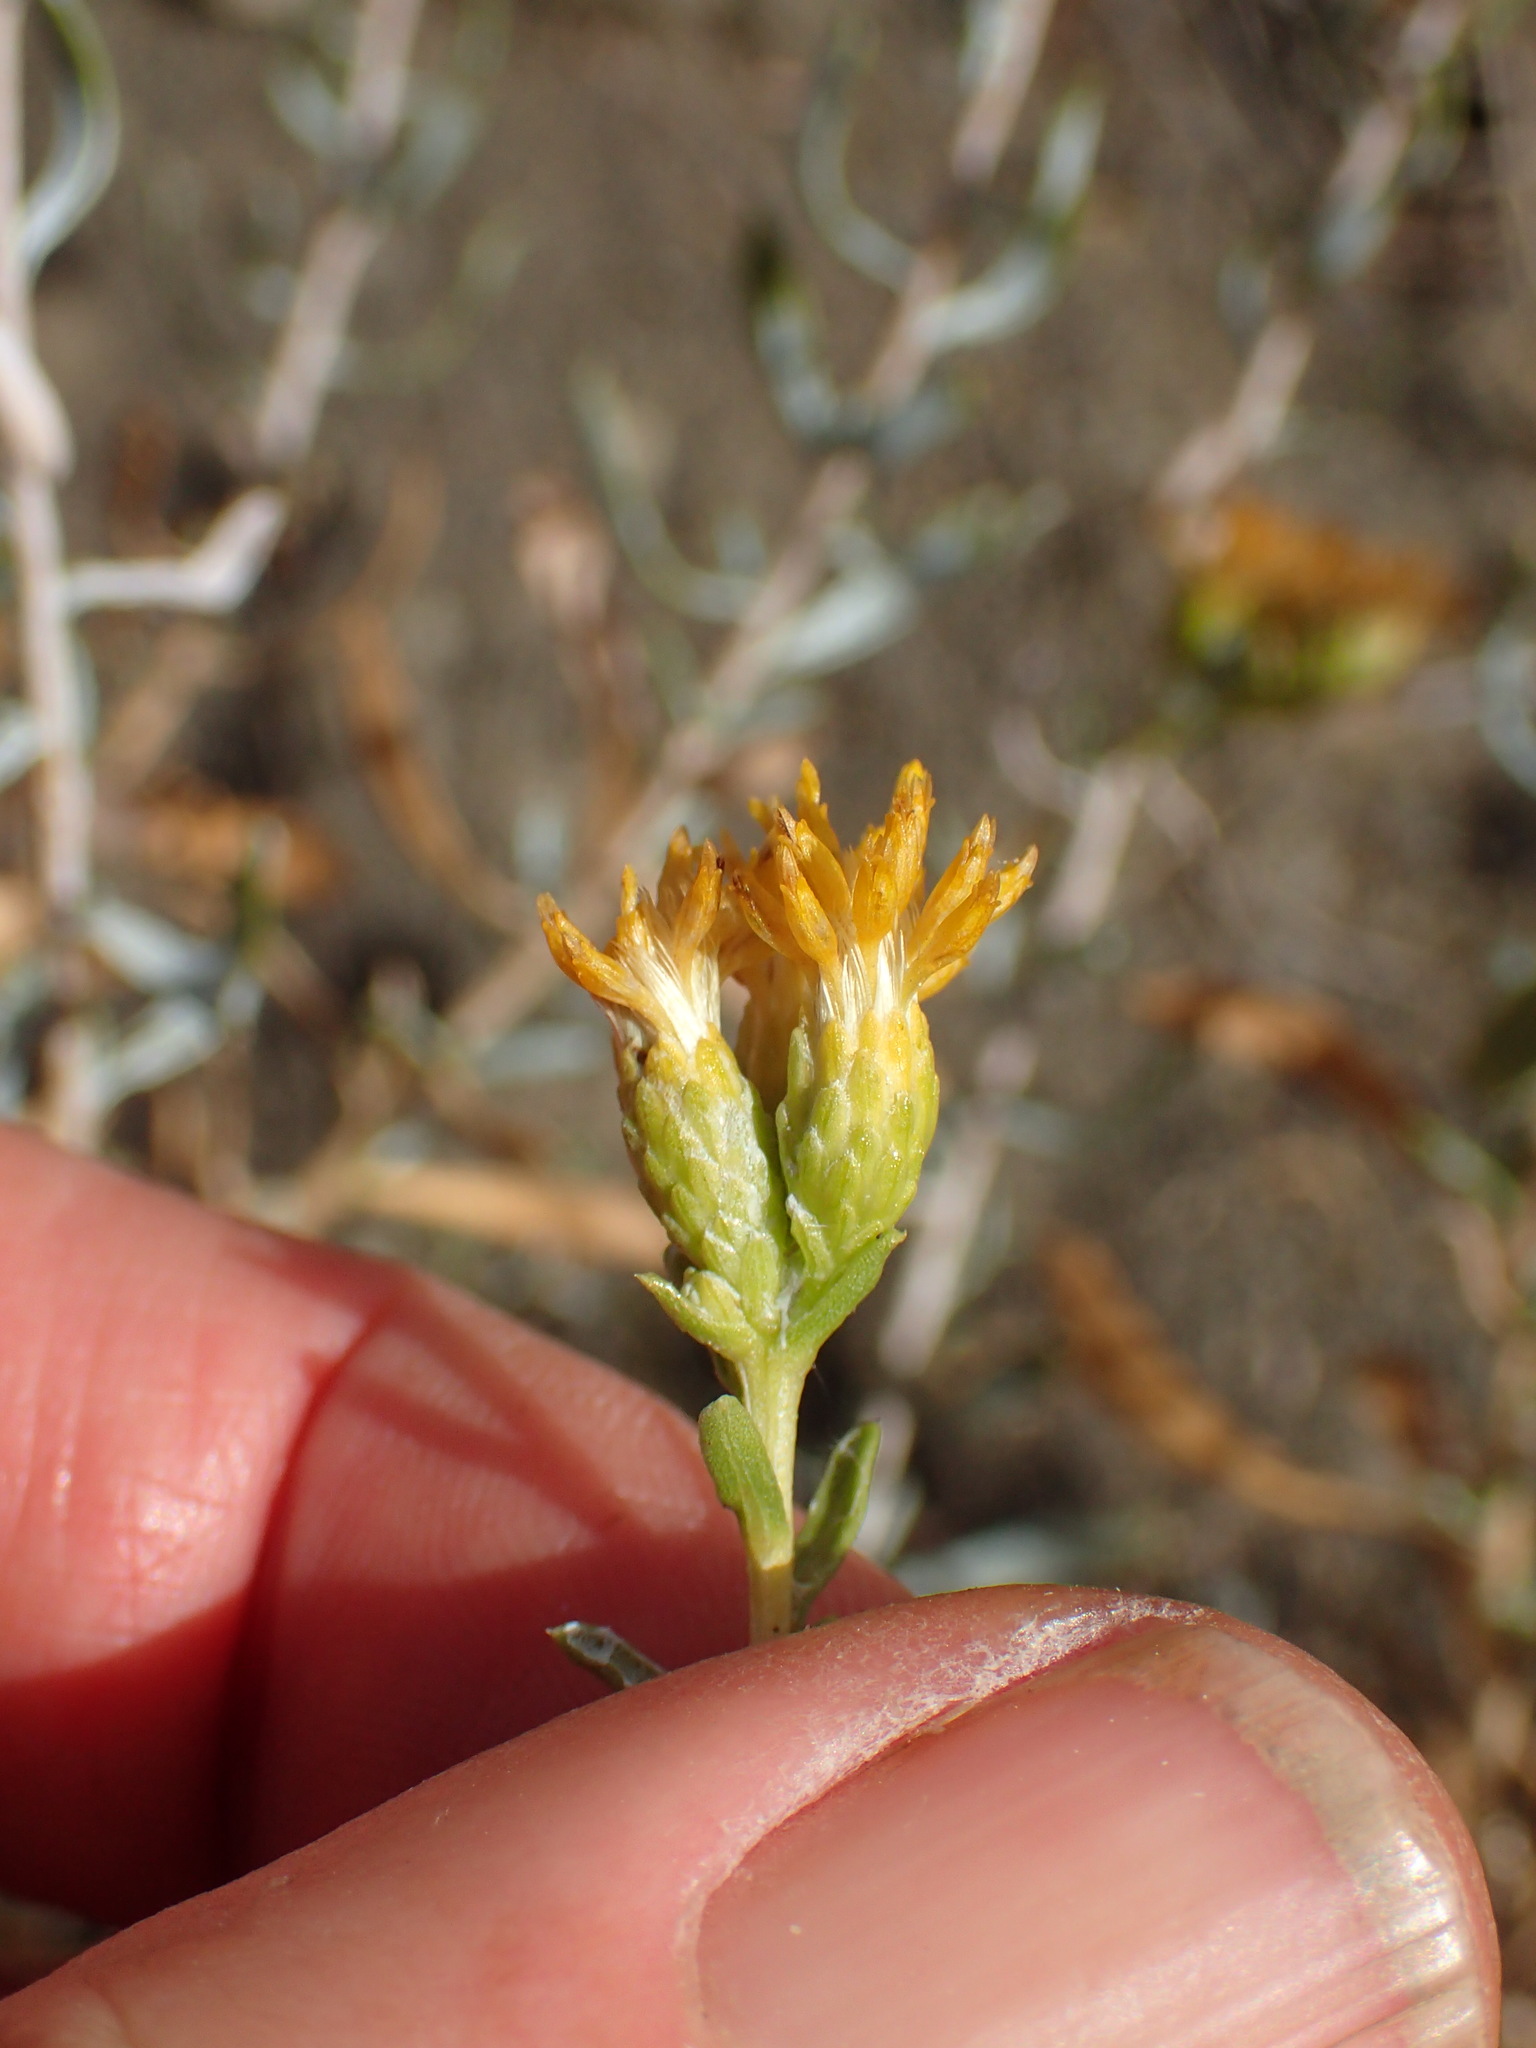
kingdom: Plantae
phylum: Tracheophyta
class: Magnoliopsida
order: Asterales
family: Asteraceae
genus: Isocoma
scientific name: Isocoma menziesii
